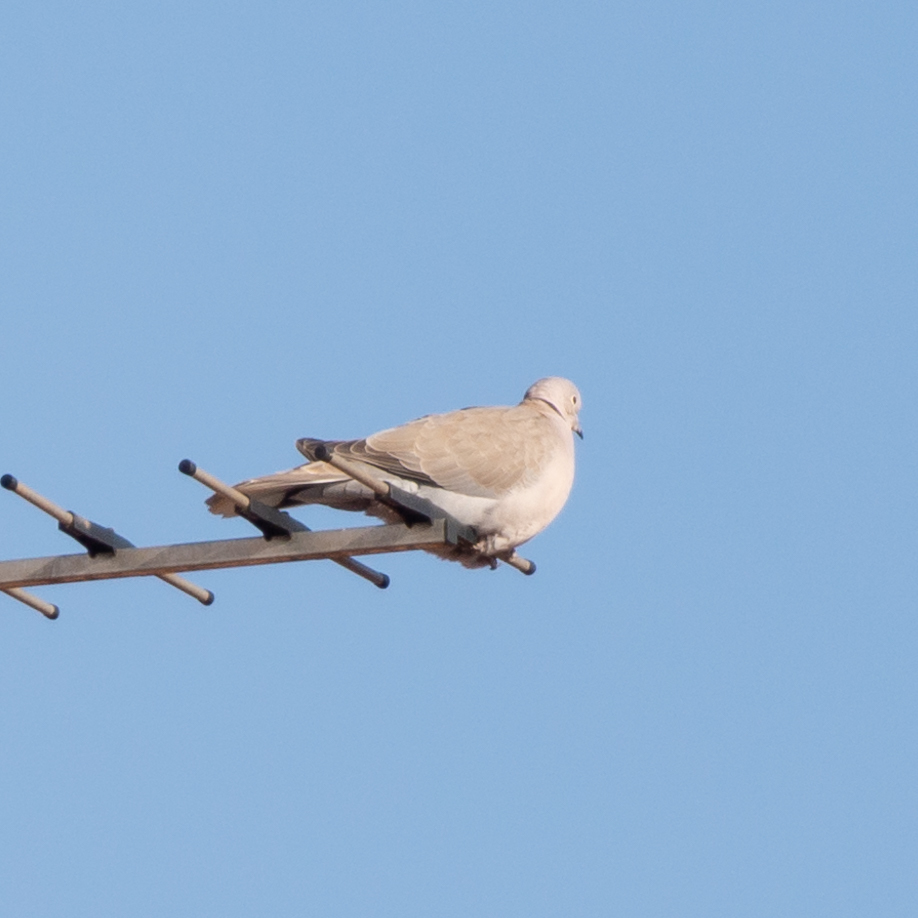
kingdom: Animalia
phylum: Chordata
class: Aves
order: Columbiformes
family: Columbidae
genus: Streptopelia
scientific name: Streptopelia decaocto
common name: Eurasian collared dove
